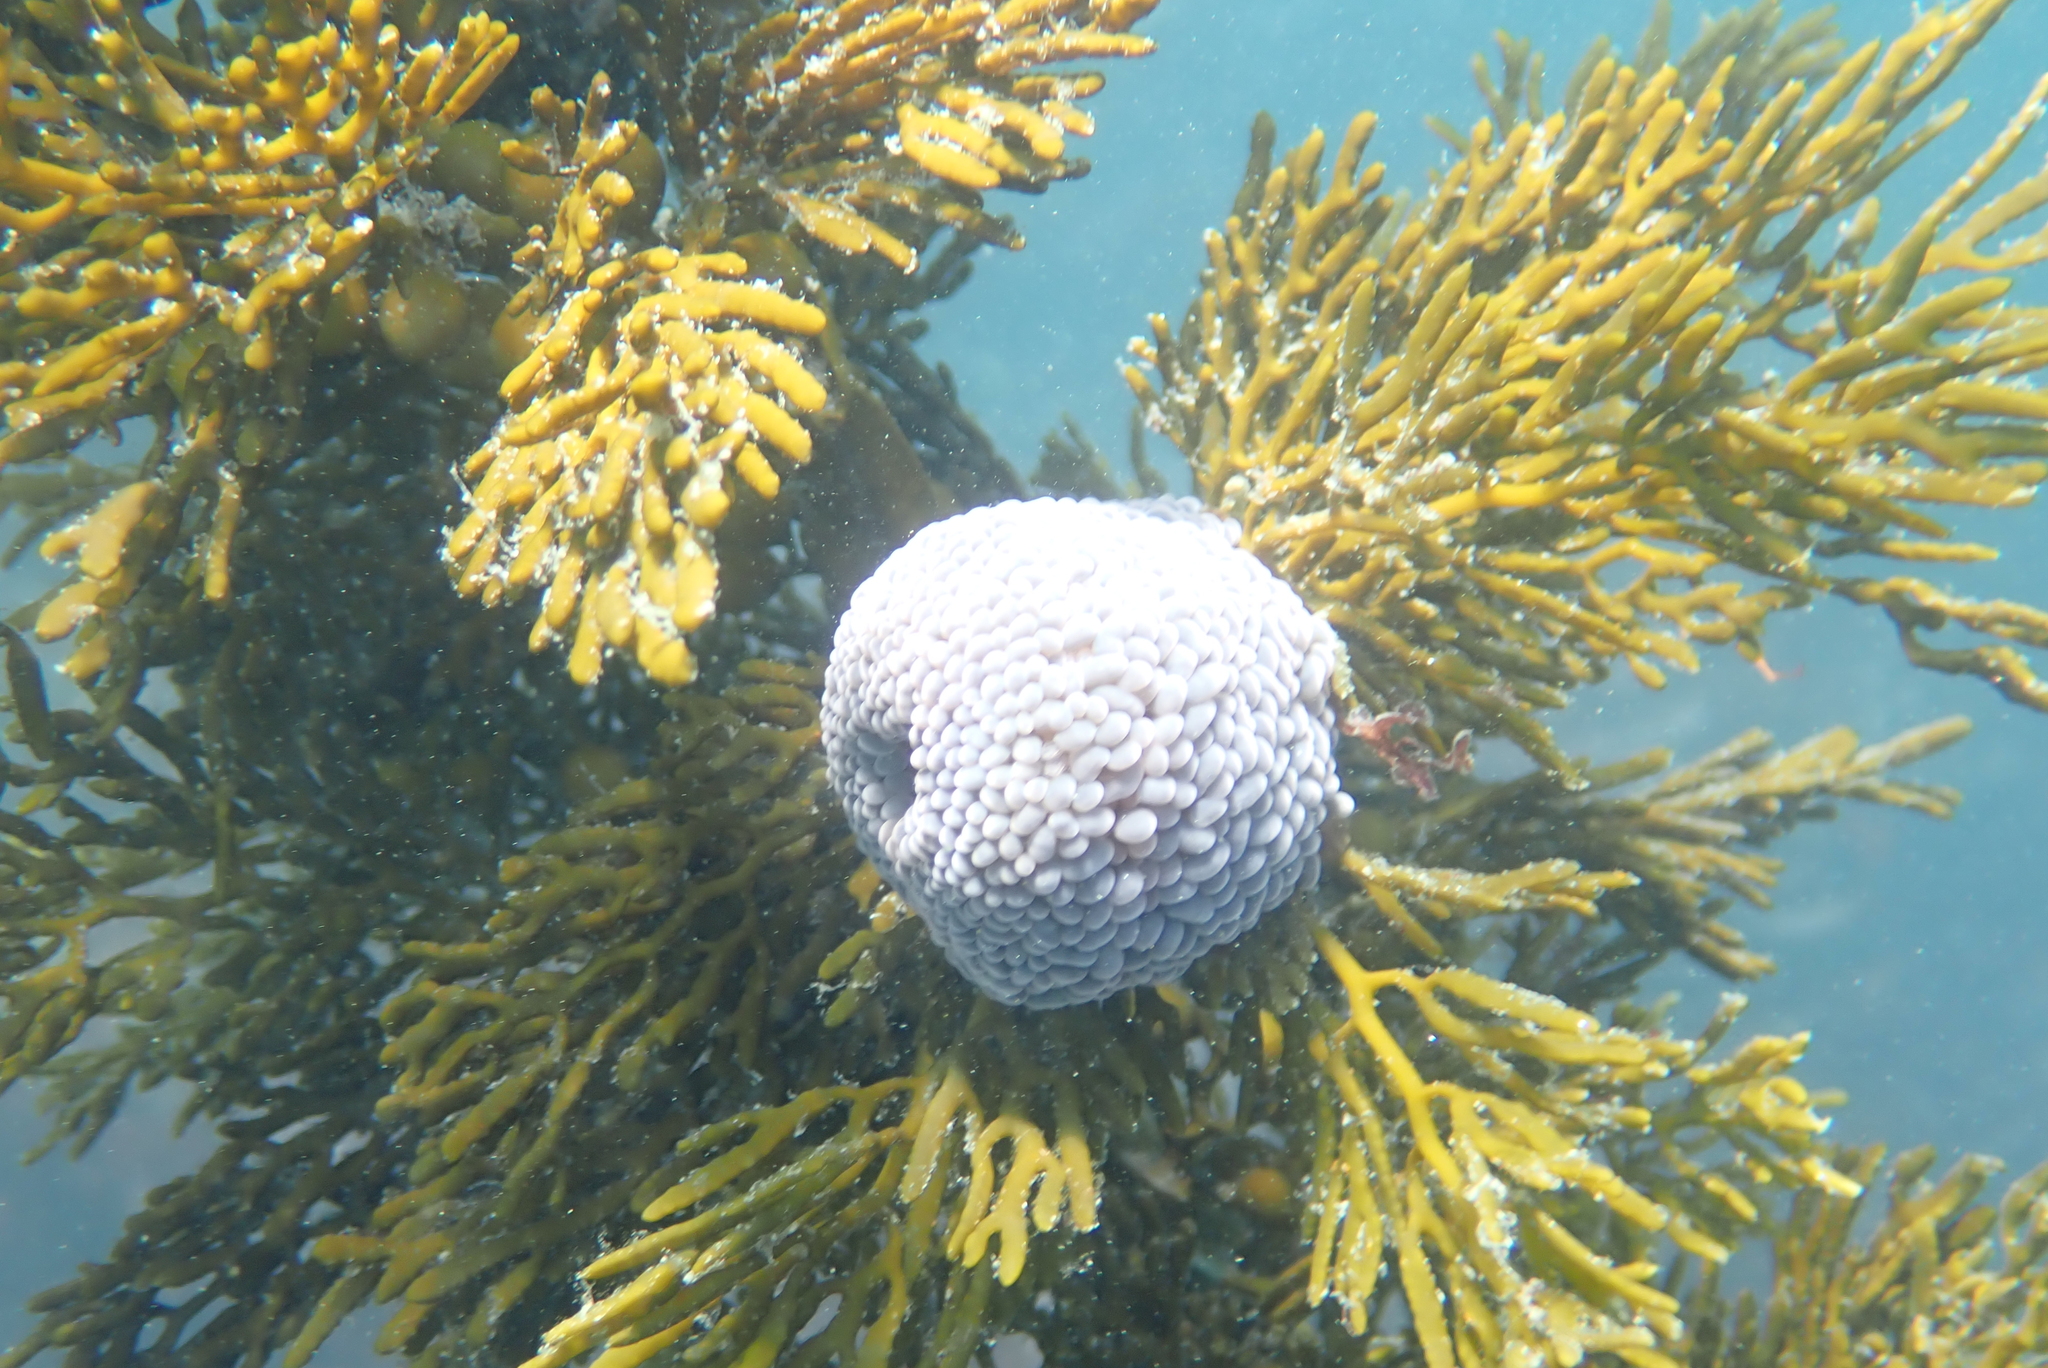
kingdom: Animalia
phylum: Cnidaria
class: Anthozoa
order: Actiniaria
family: Actiniidae
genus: Phlyctenactis
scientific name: Phlyctenactis tuberculosa
